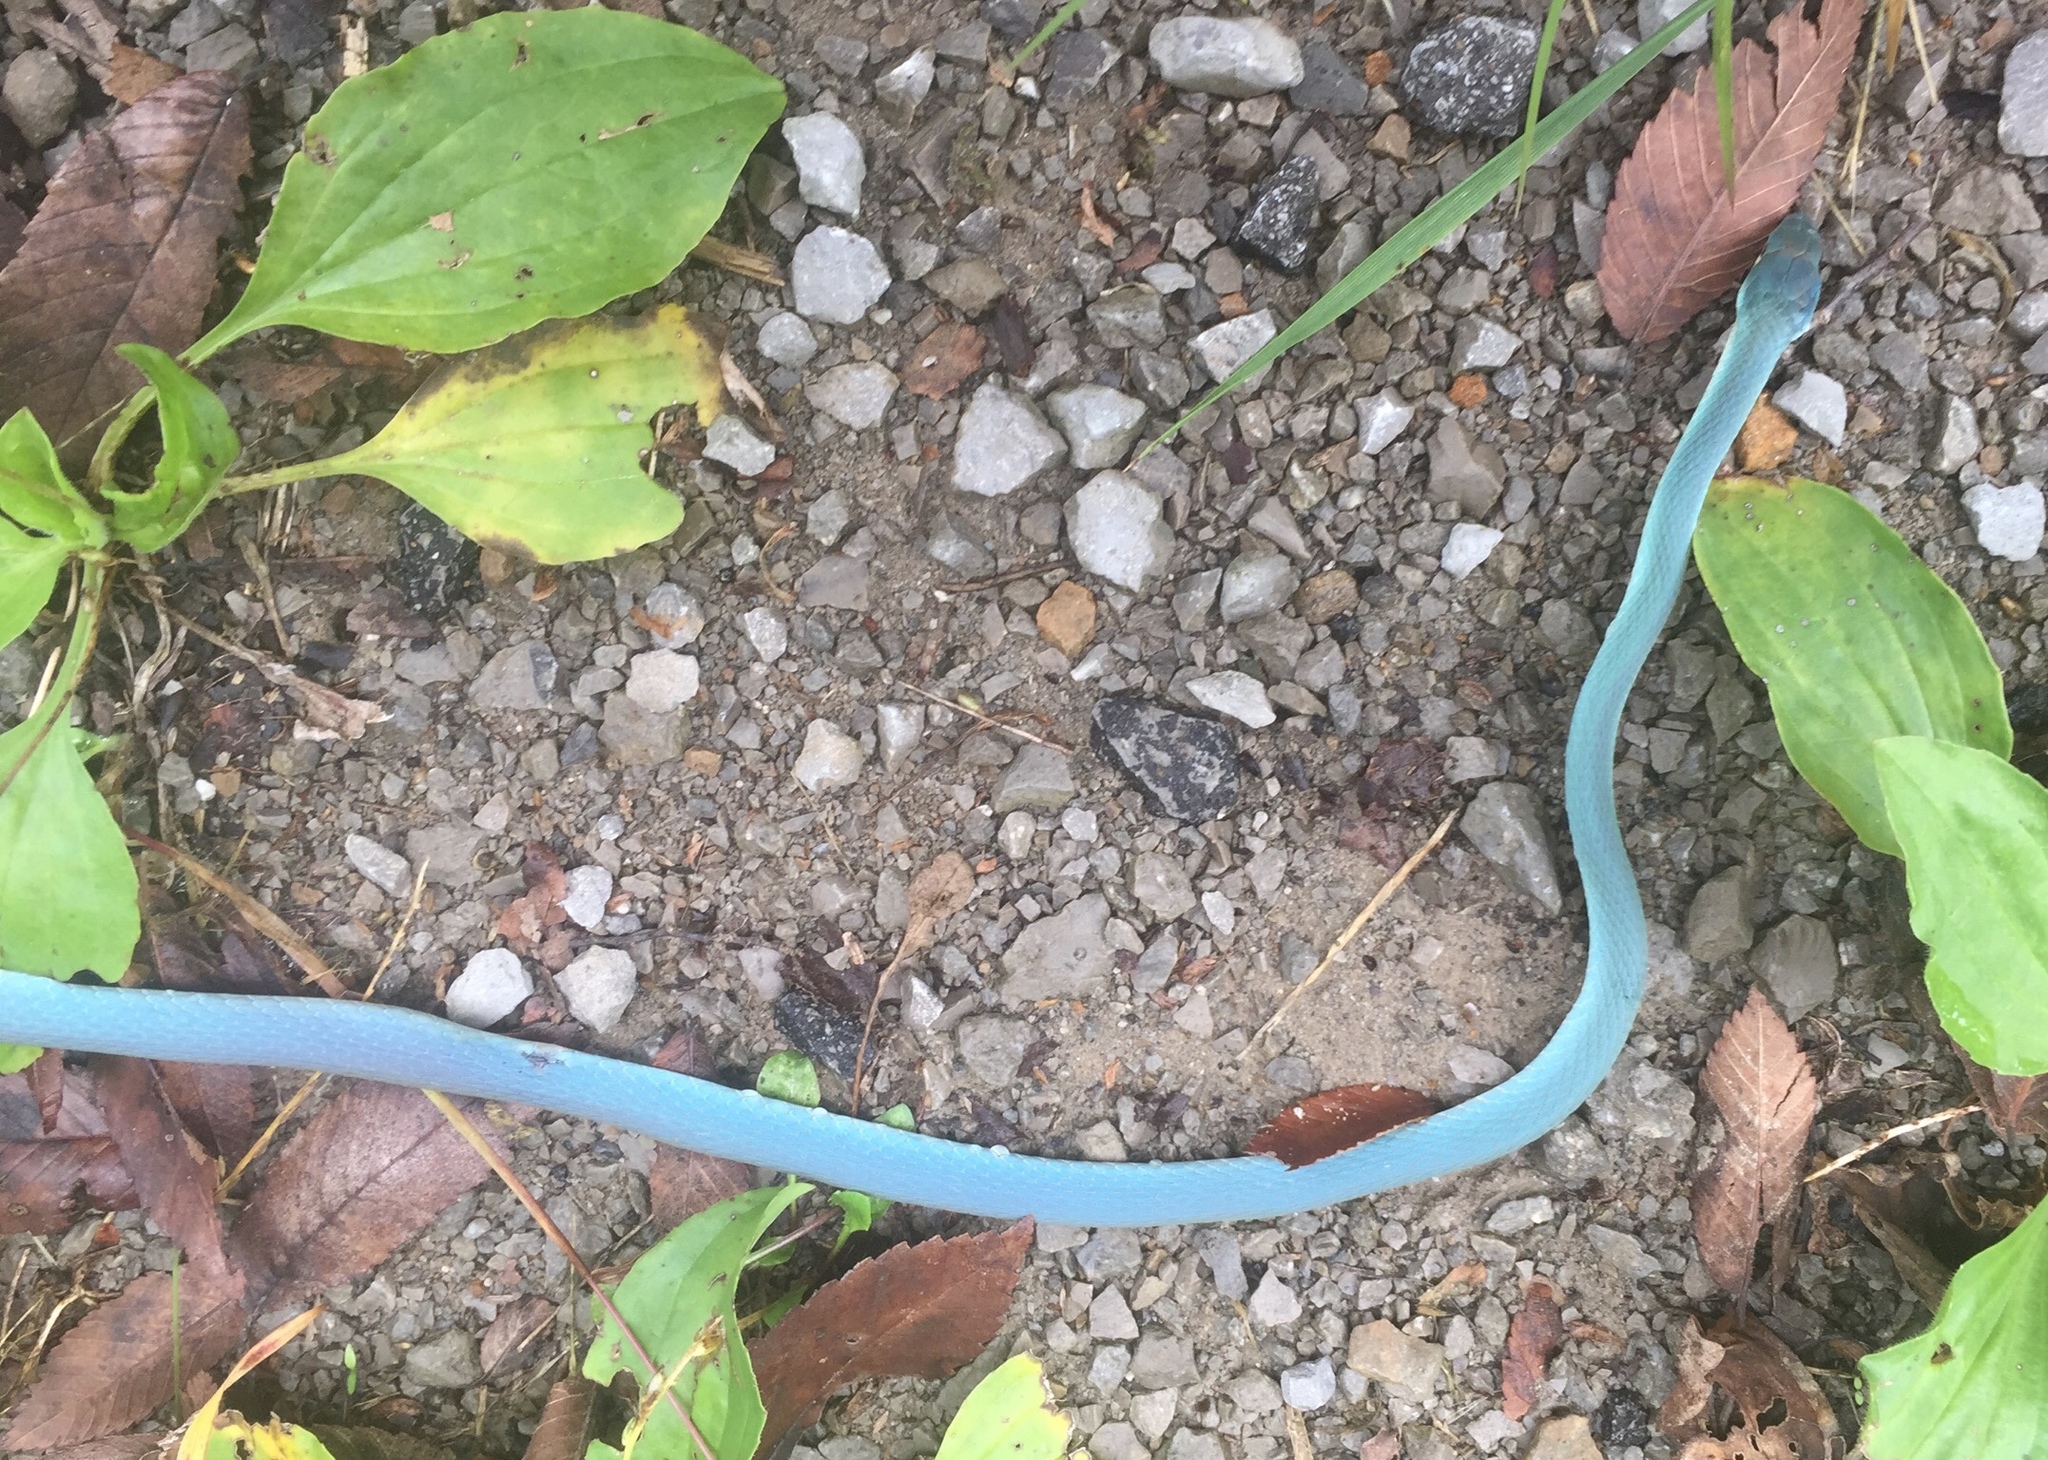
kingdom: Animalia
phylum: Chordata
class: Squamata
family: Colubridae
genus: Opheodrys
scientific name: Opheodrys aestivus
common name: Rough greensnake
